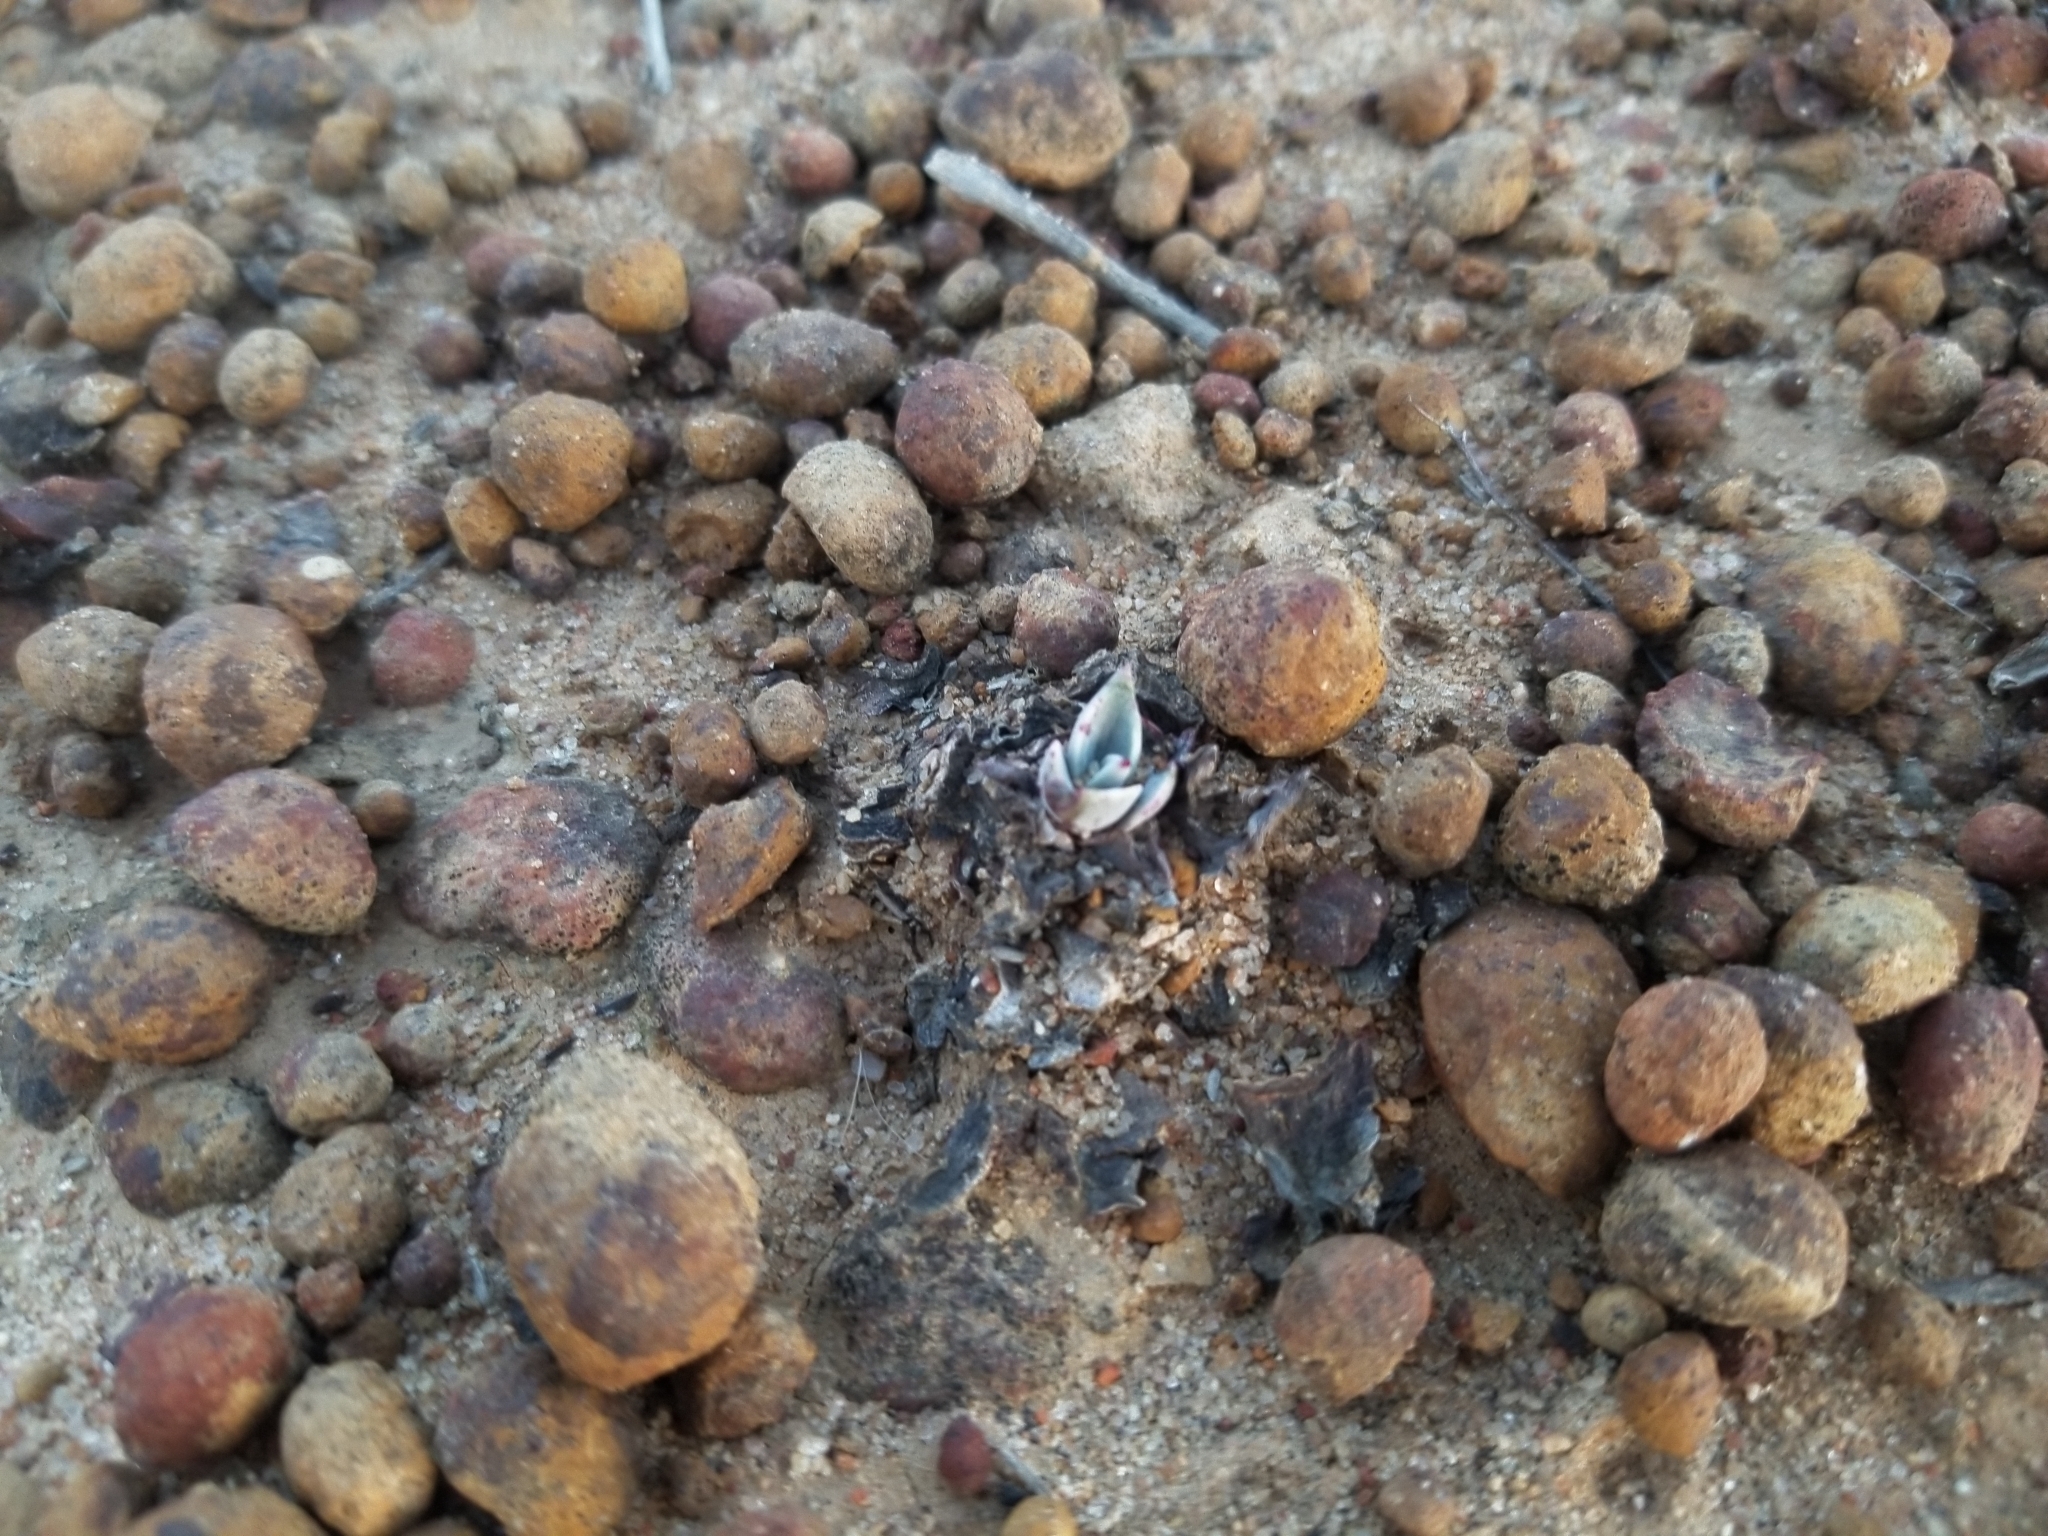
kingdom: Plantae
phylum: Tracheophyta
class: Magnoliopsida
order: Saxifragales
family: Crassulaceae
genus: Dudleya
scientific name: Dudleya lanceolata
